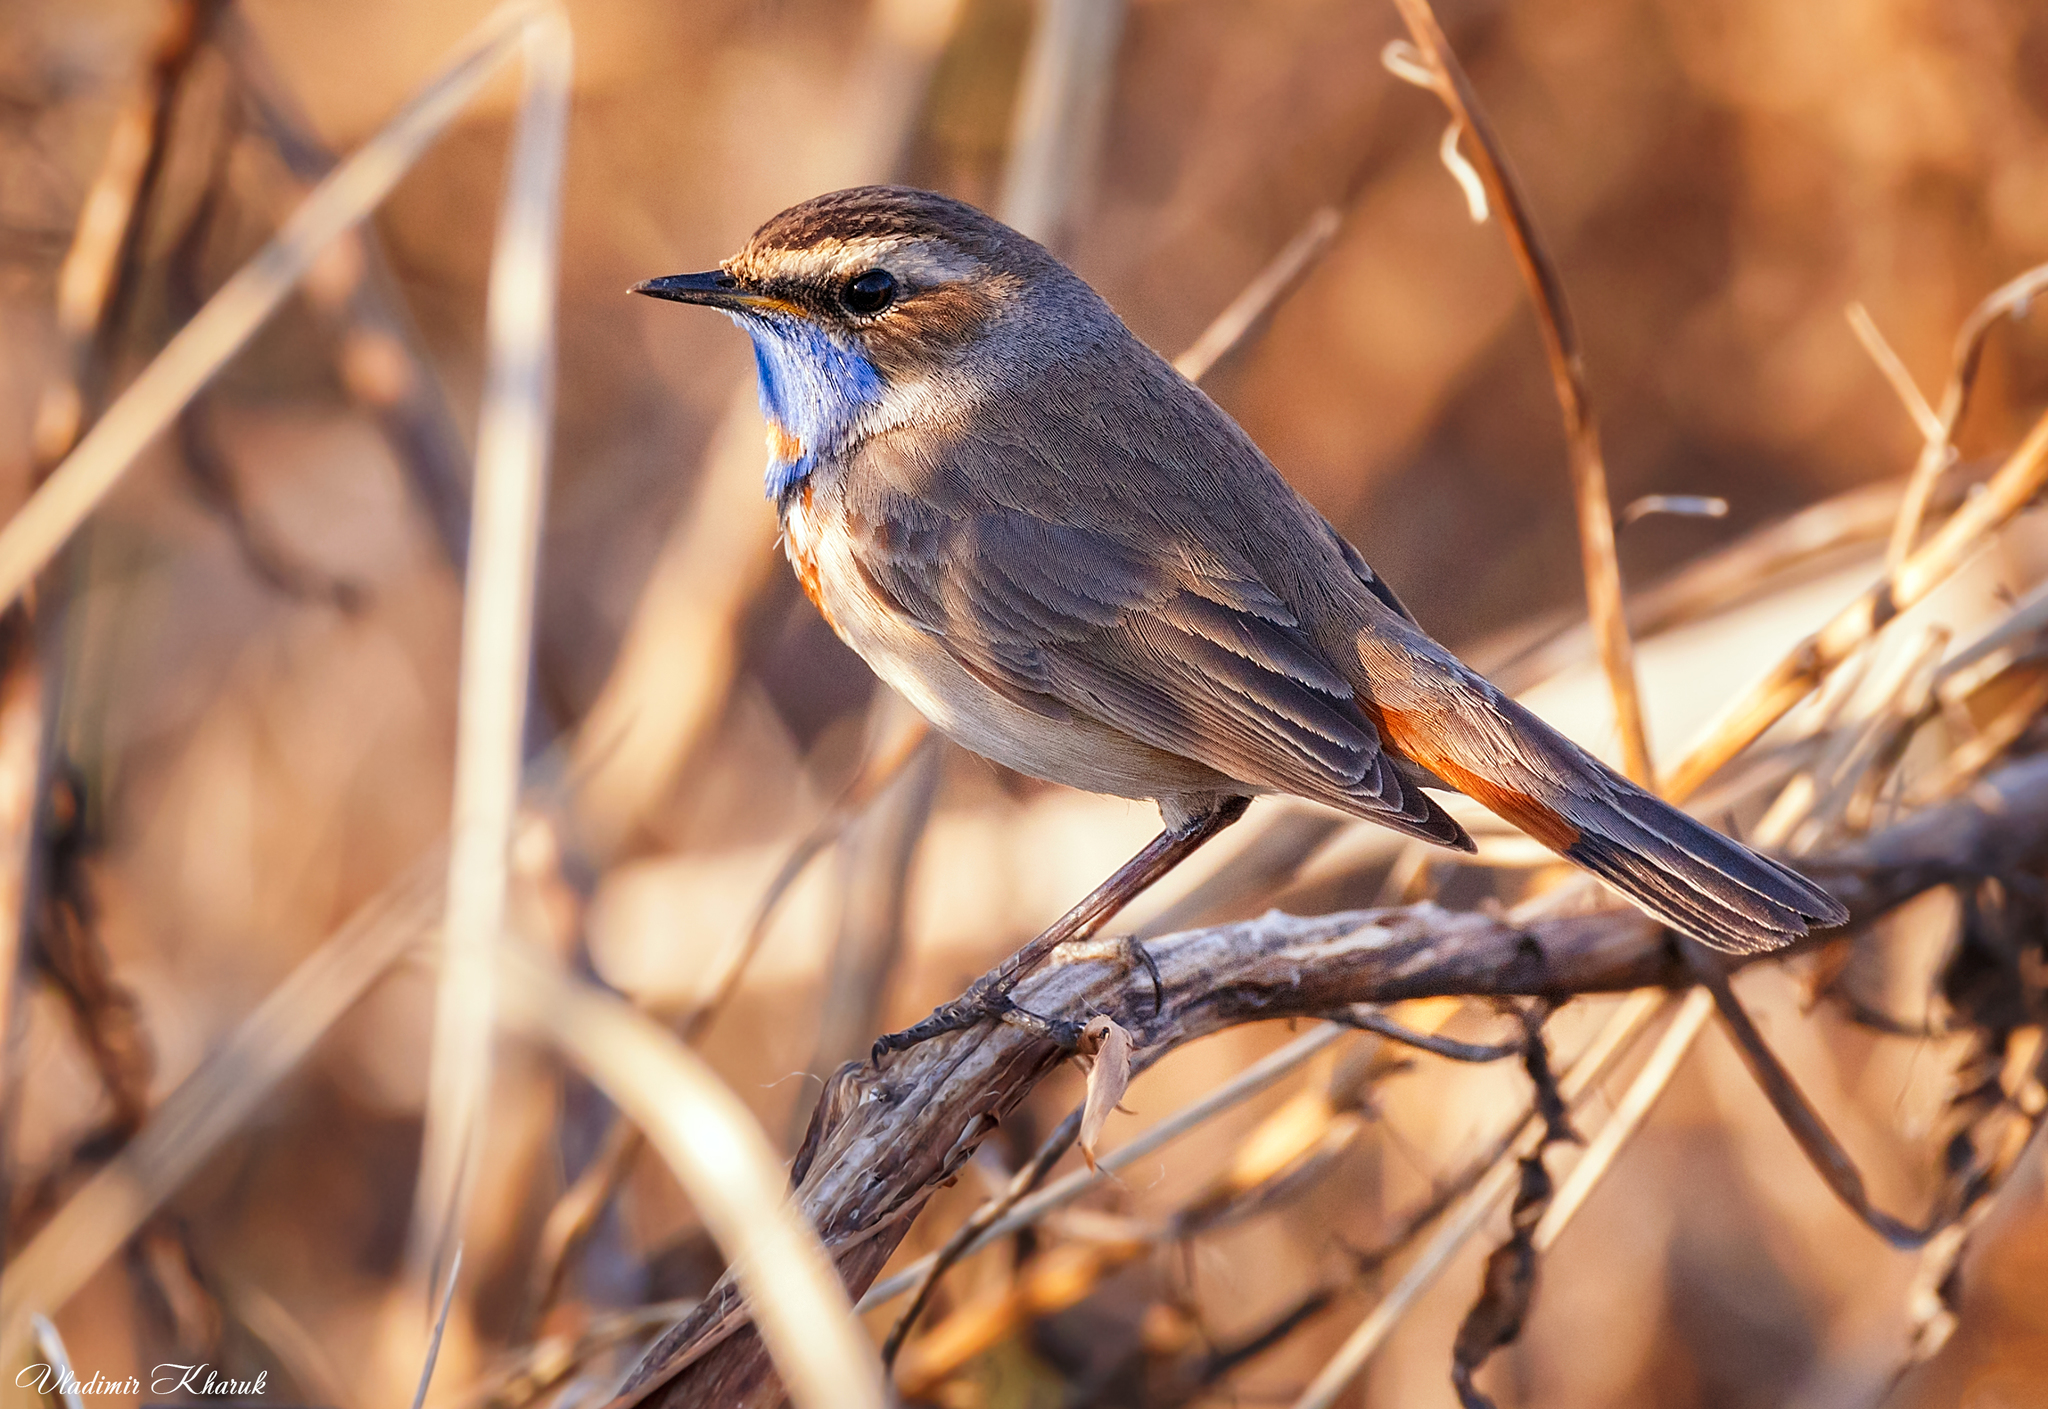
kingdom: Animalia
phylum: Chordata
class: Aves
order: Passeriformes
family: Muscicapidae
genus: Luscinia
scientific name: Luscinia svecica
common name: Bluethroat
